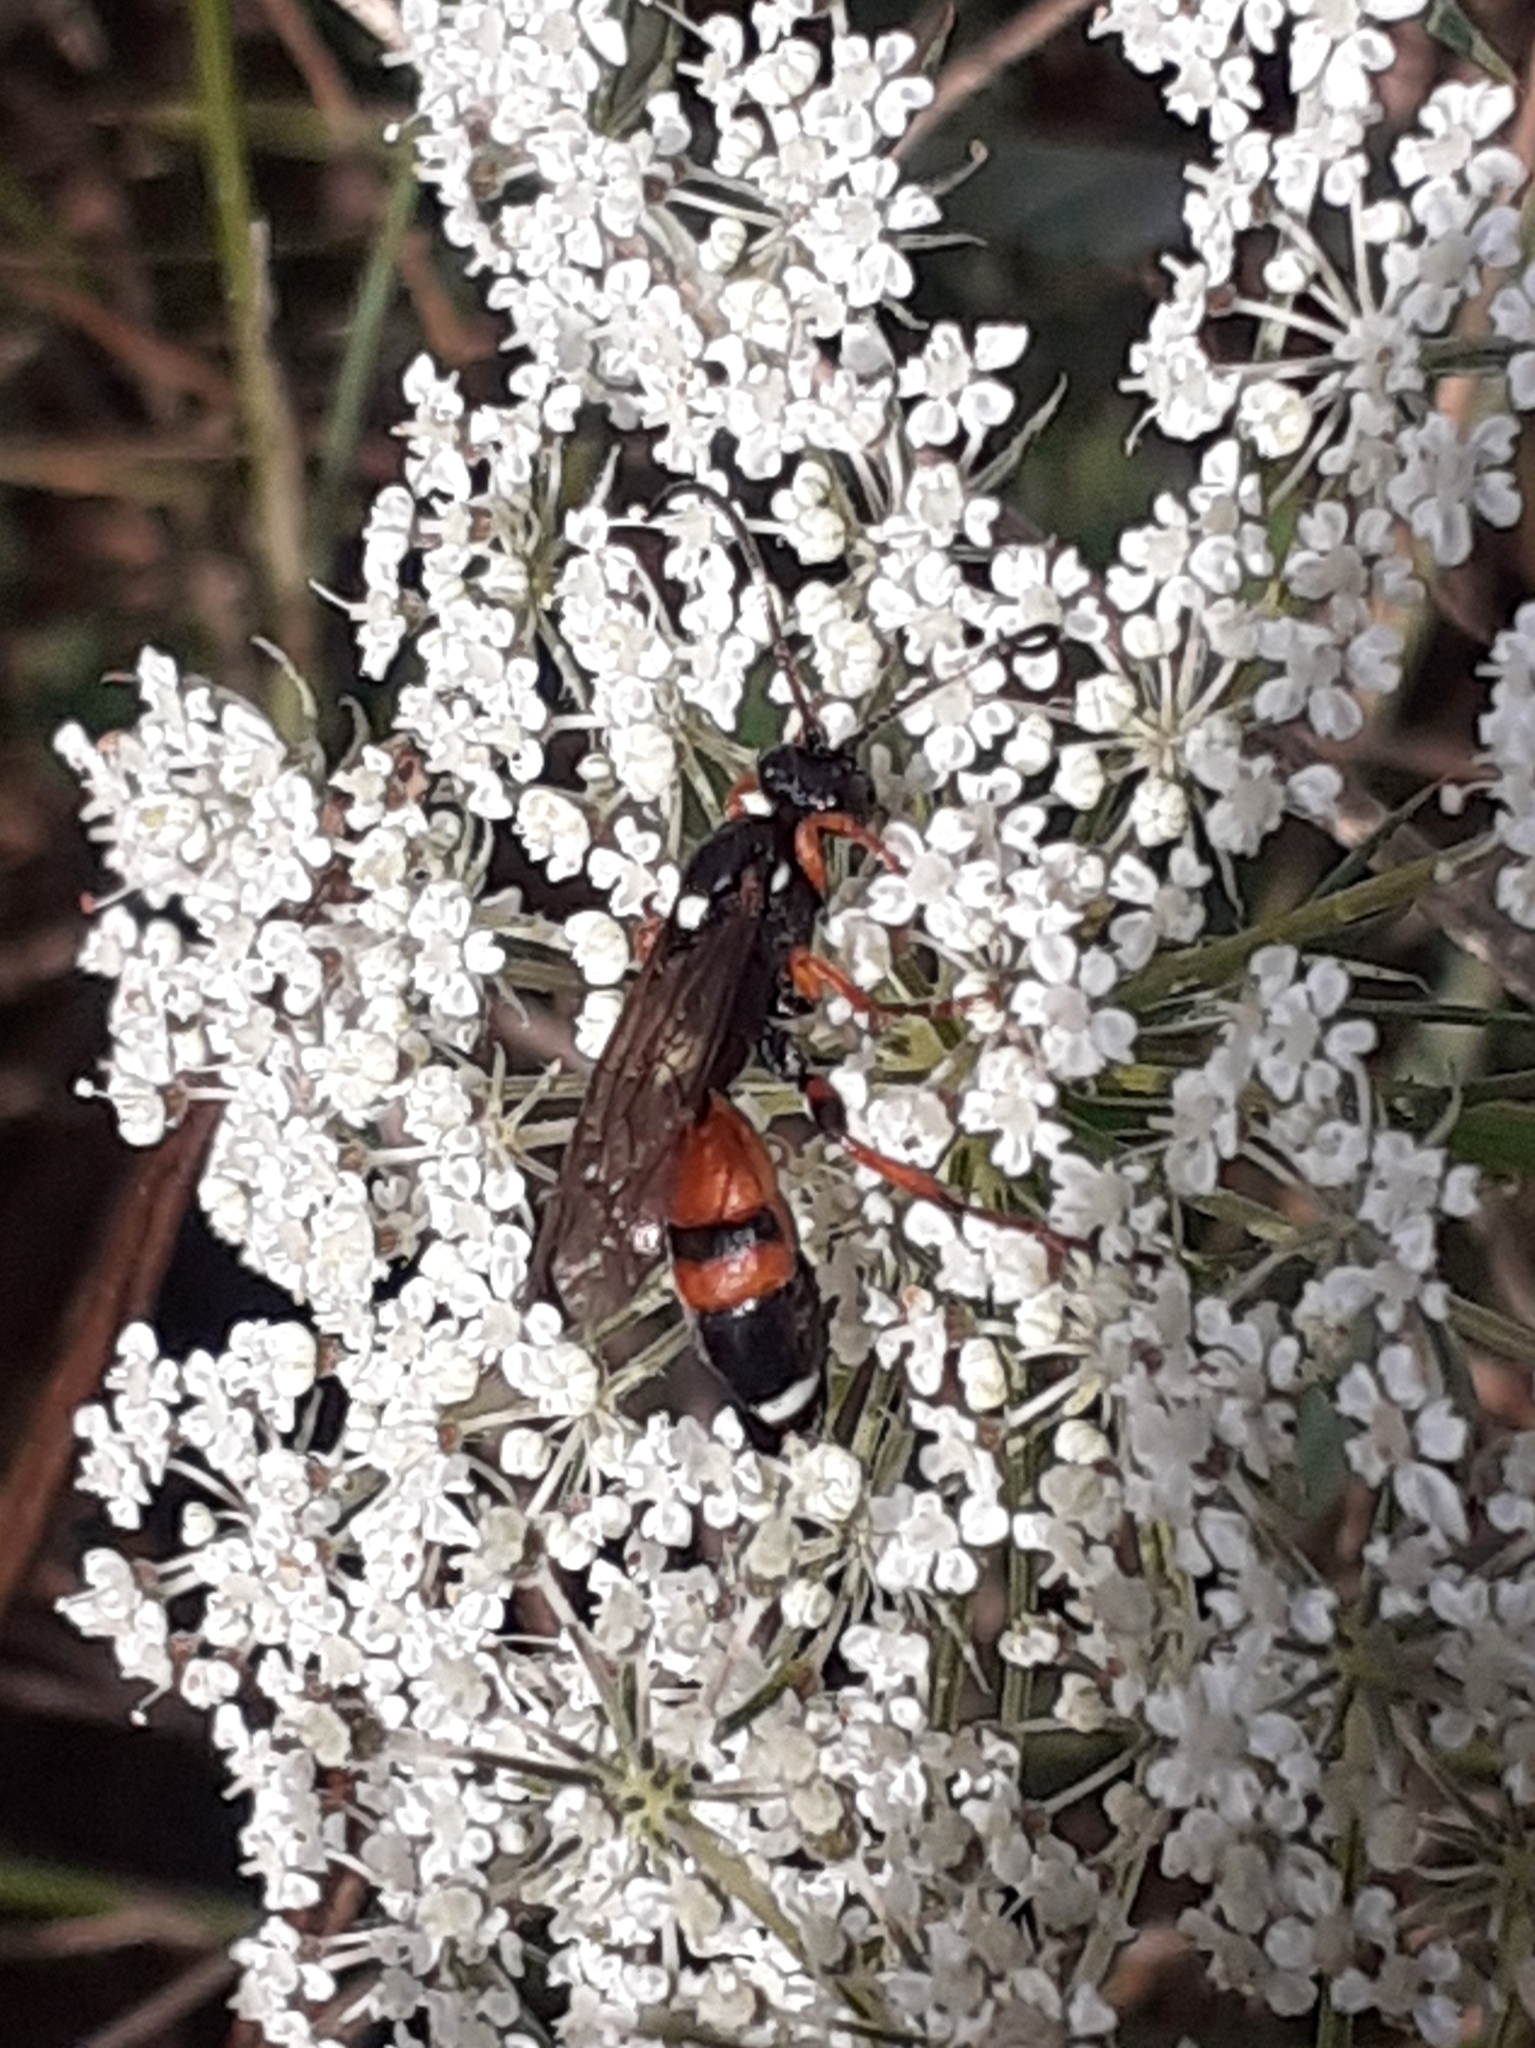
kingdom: Animalia
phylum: Arthropoda
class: Insecta
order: Hymenoptera
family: Ichneumonidae
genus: Ichneumon
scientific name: Ichneumon sarcitorius
